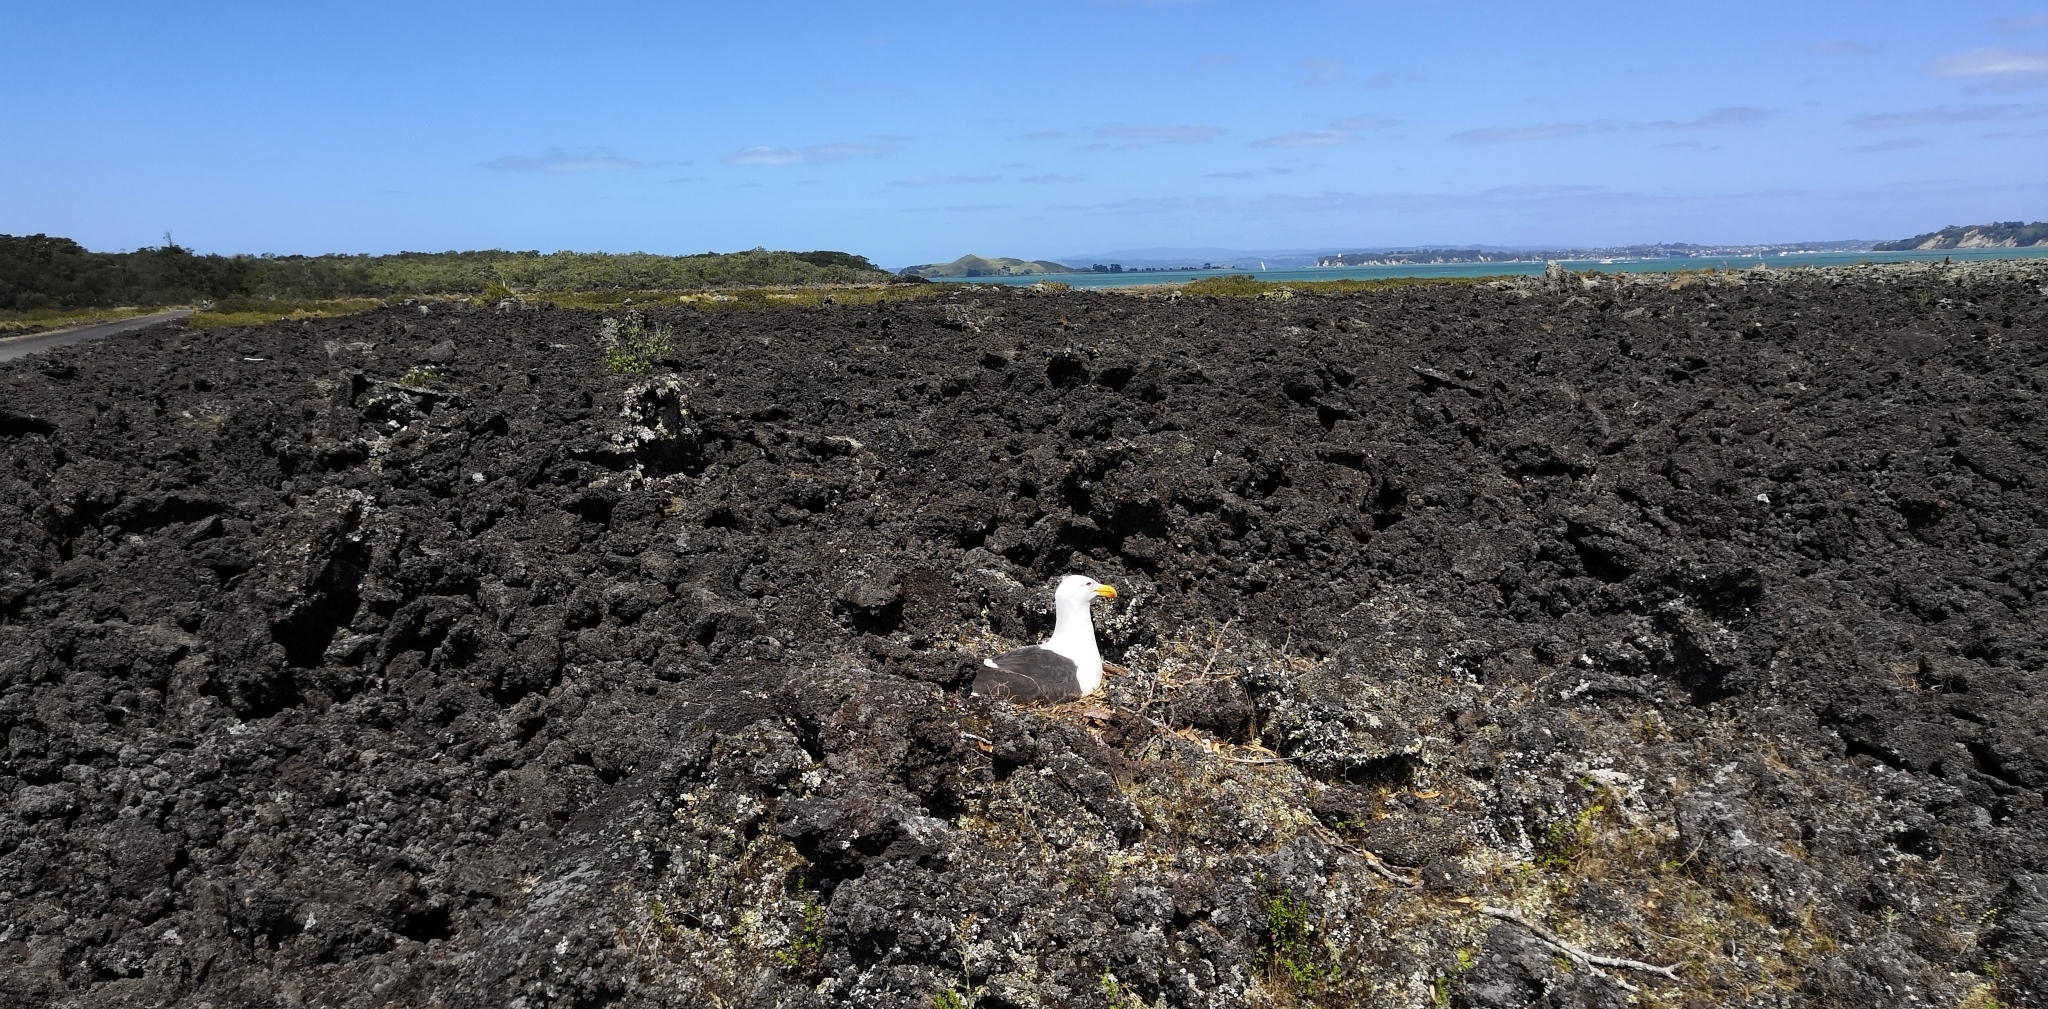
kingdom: Animalia
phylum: Chordata
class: Aves
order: Charadriiformes
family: Laridae
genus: Larus
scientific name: Larus dominicanus
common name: Kelp gull
